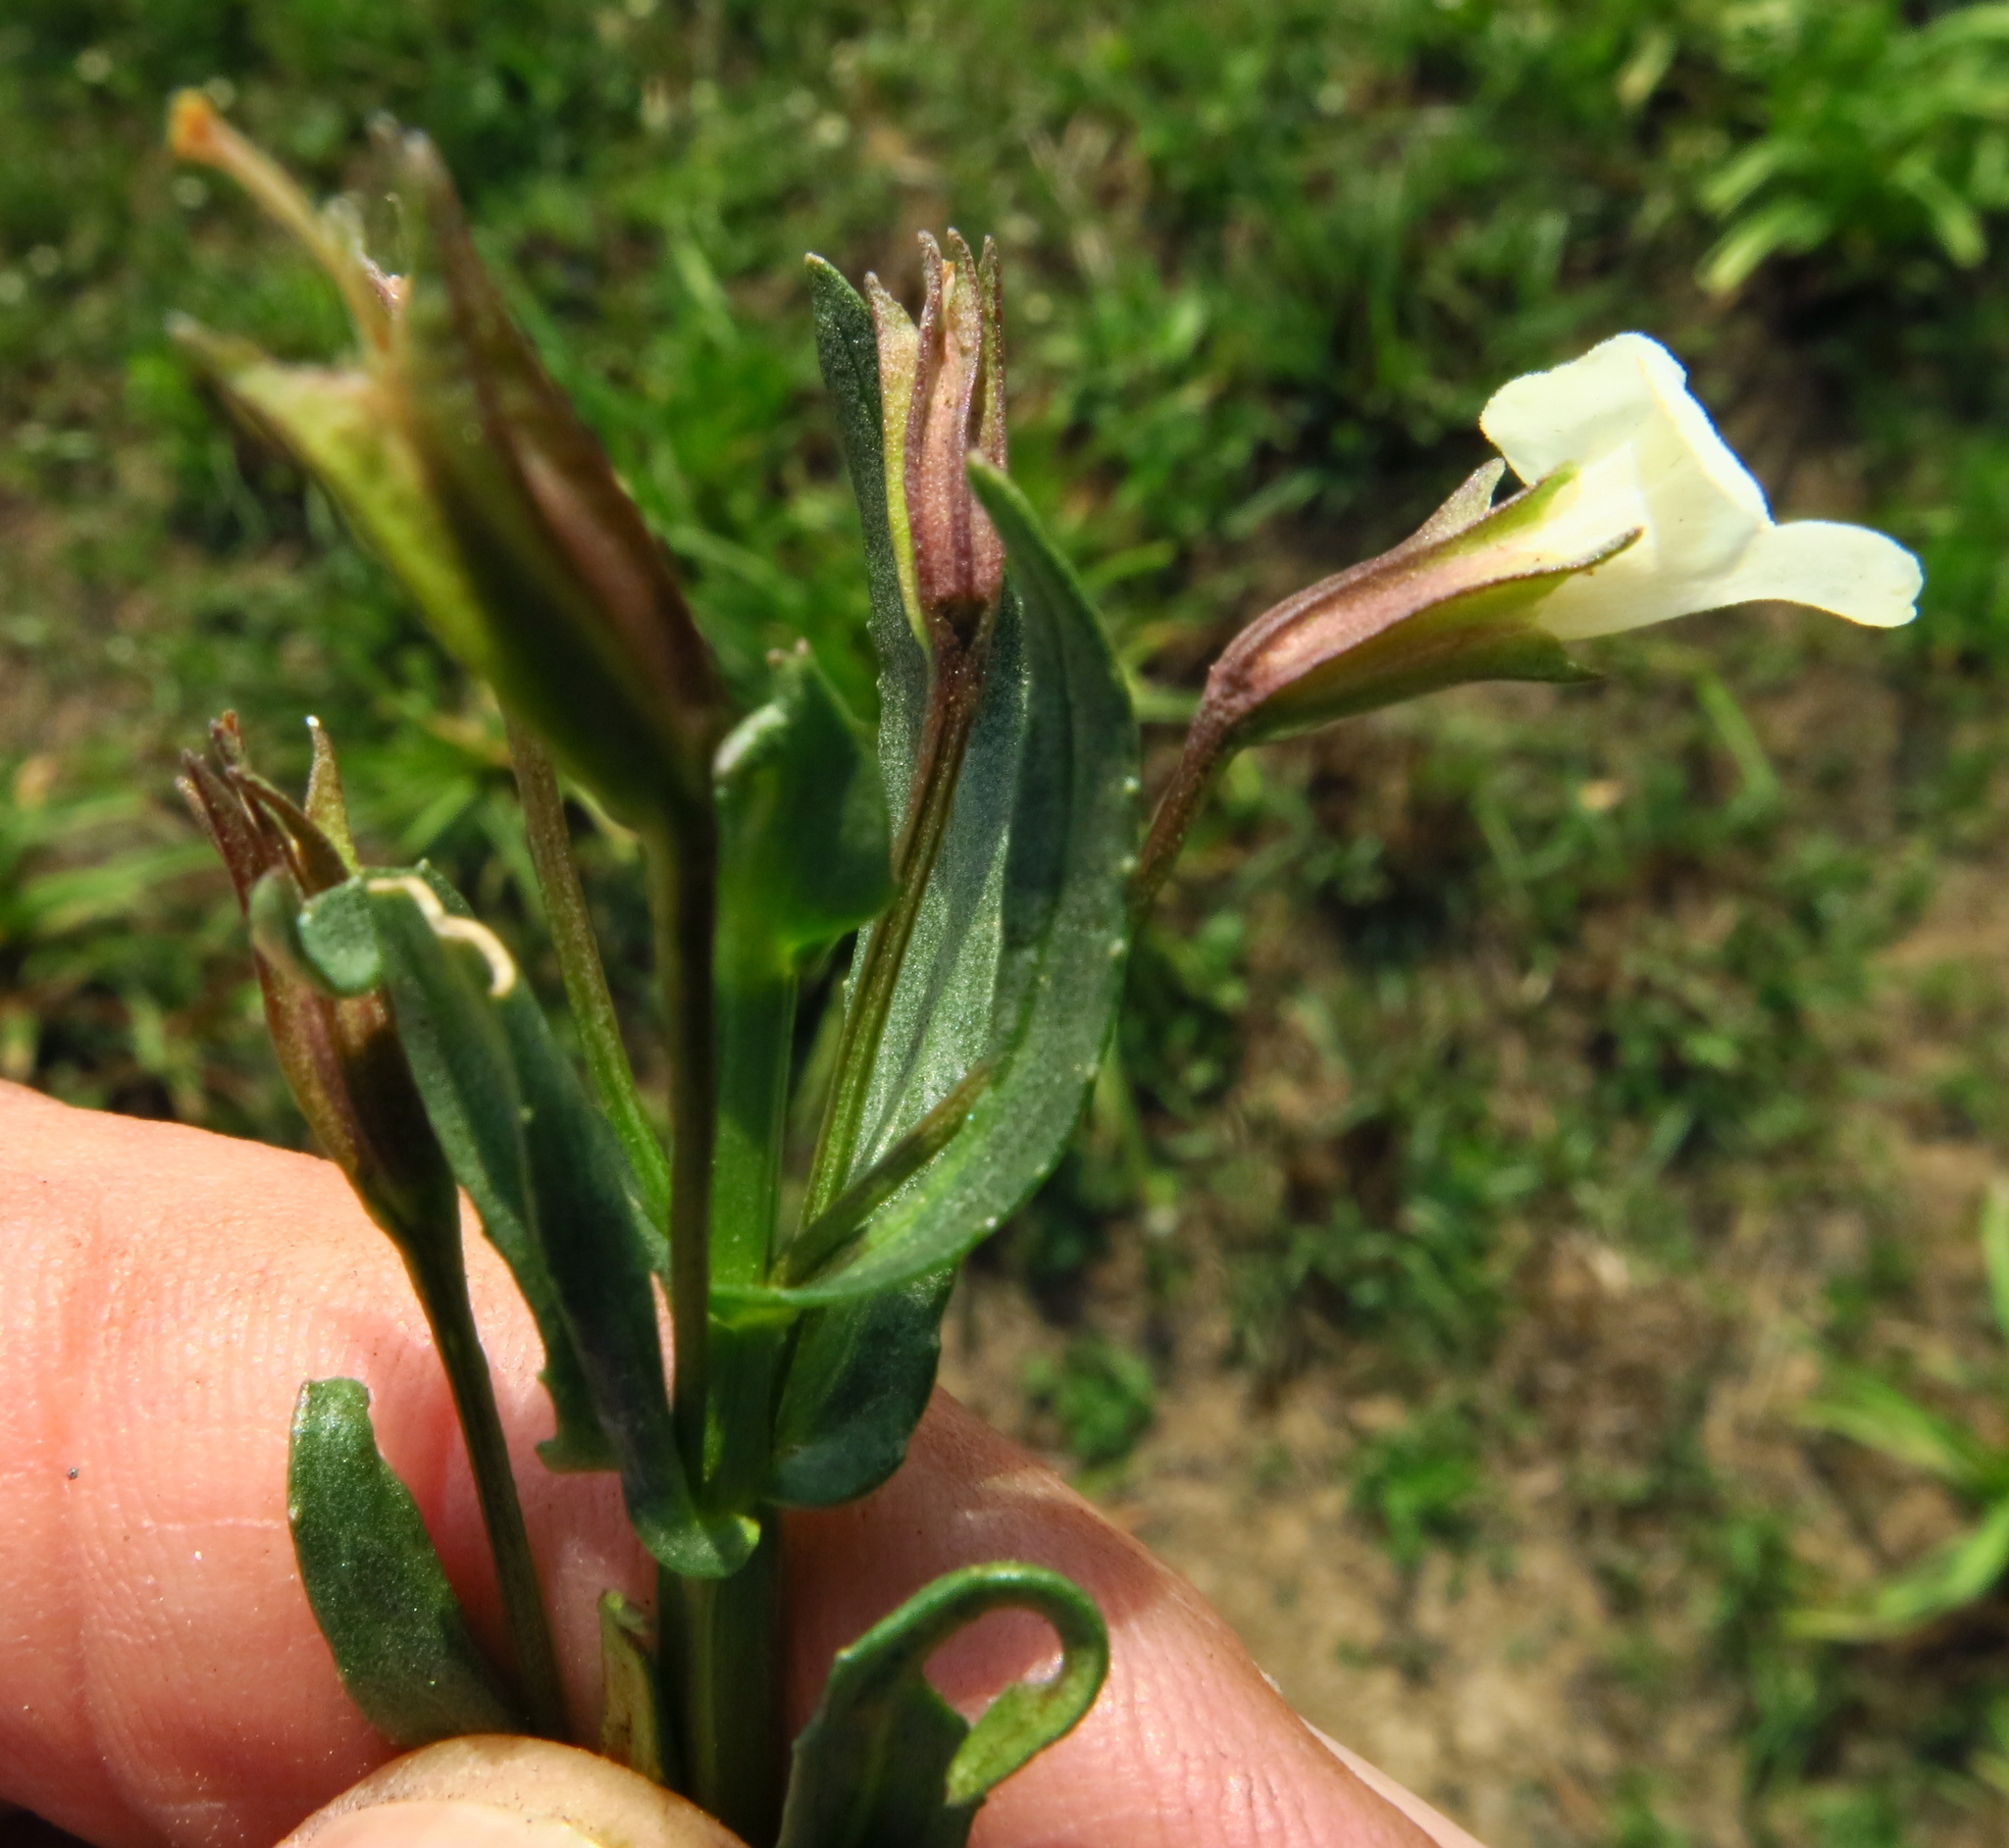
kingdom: Plantae
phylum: Tracheophyta
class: Magnoliopsida
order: Lamiales
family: Phrymaceae
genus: Mimulus
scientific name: Mimulus gracilis
